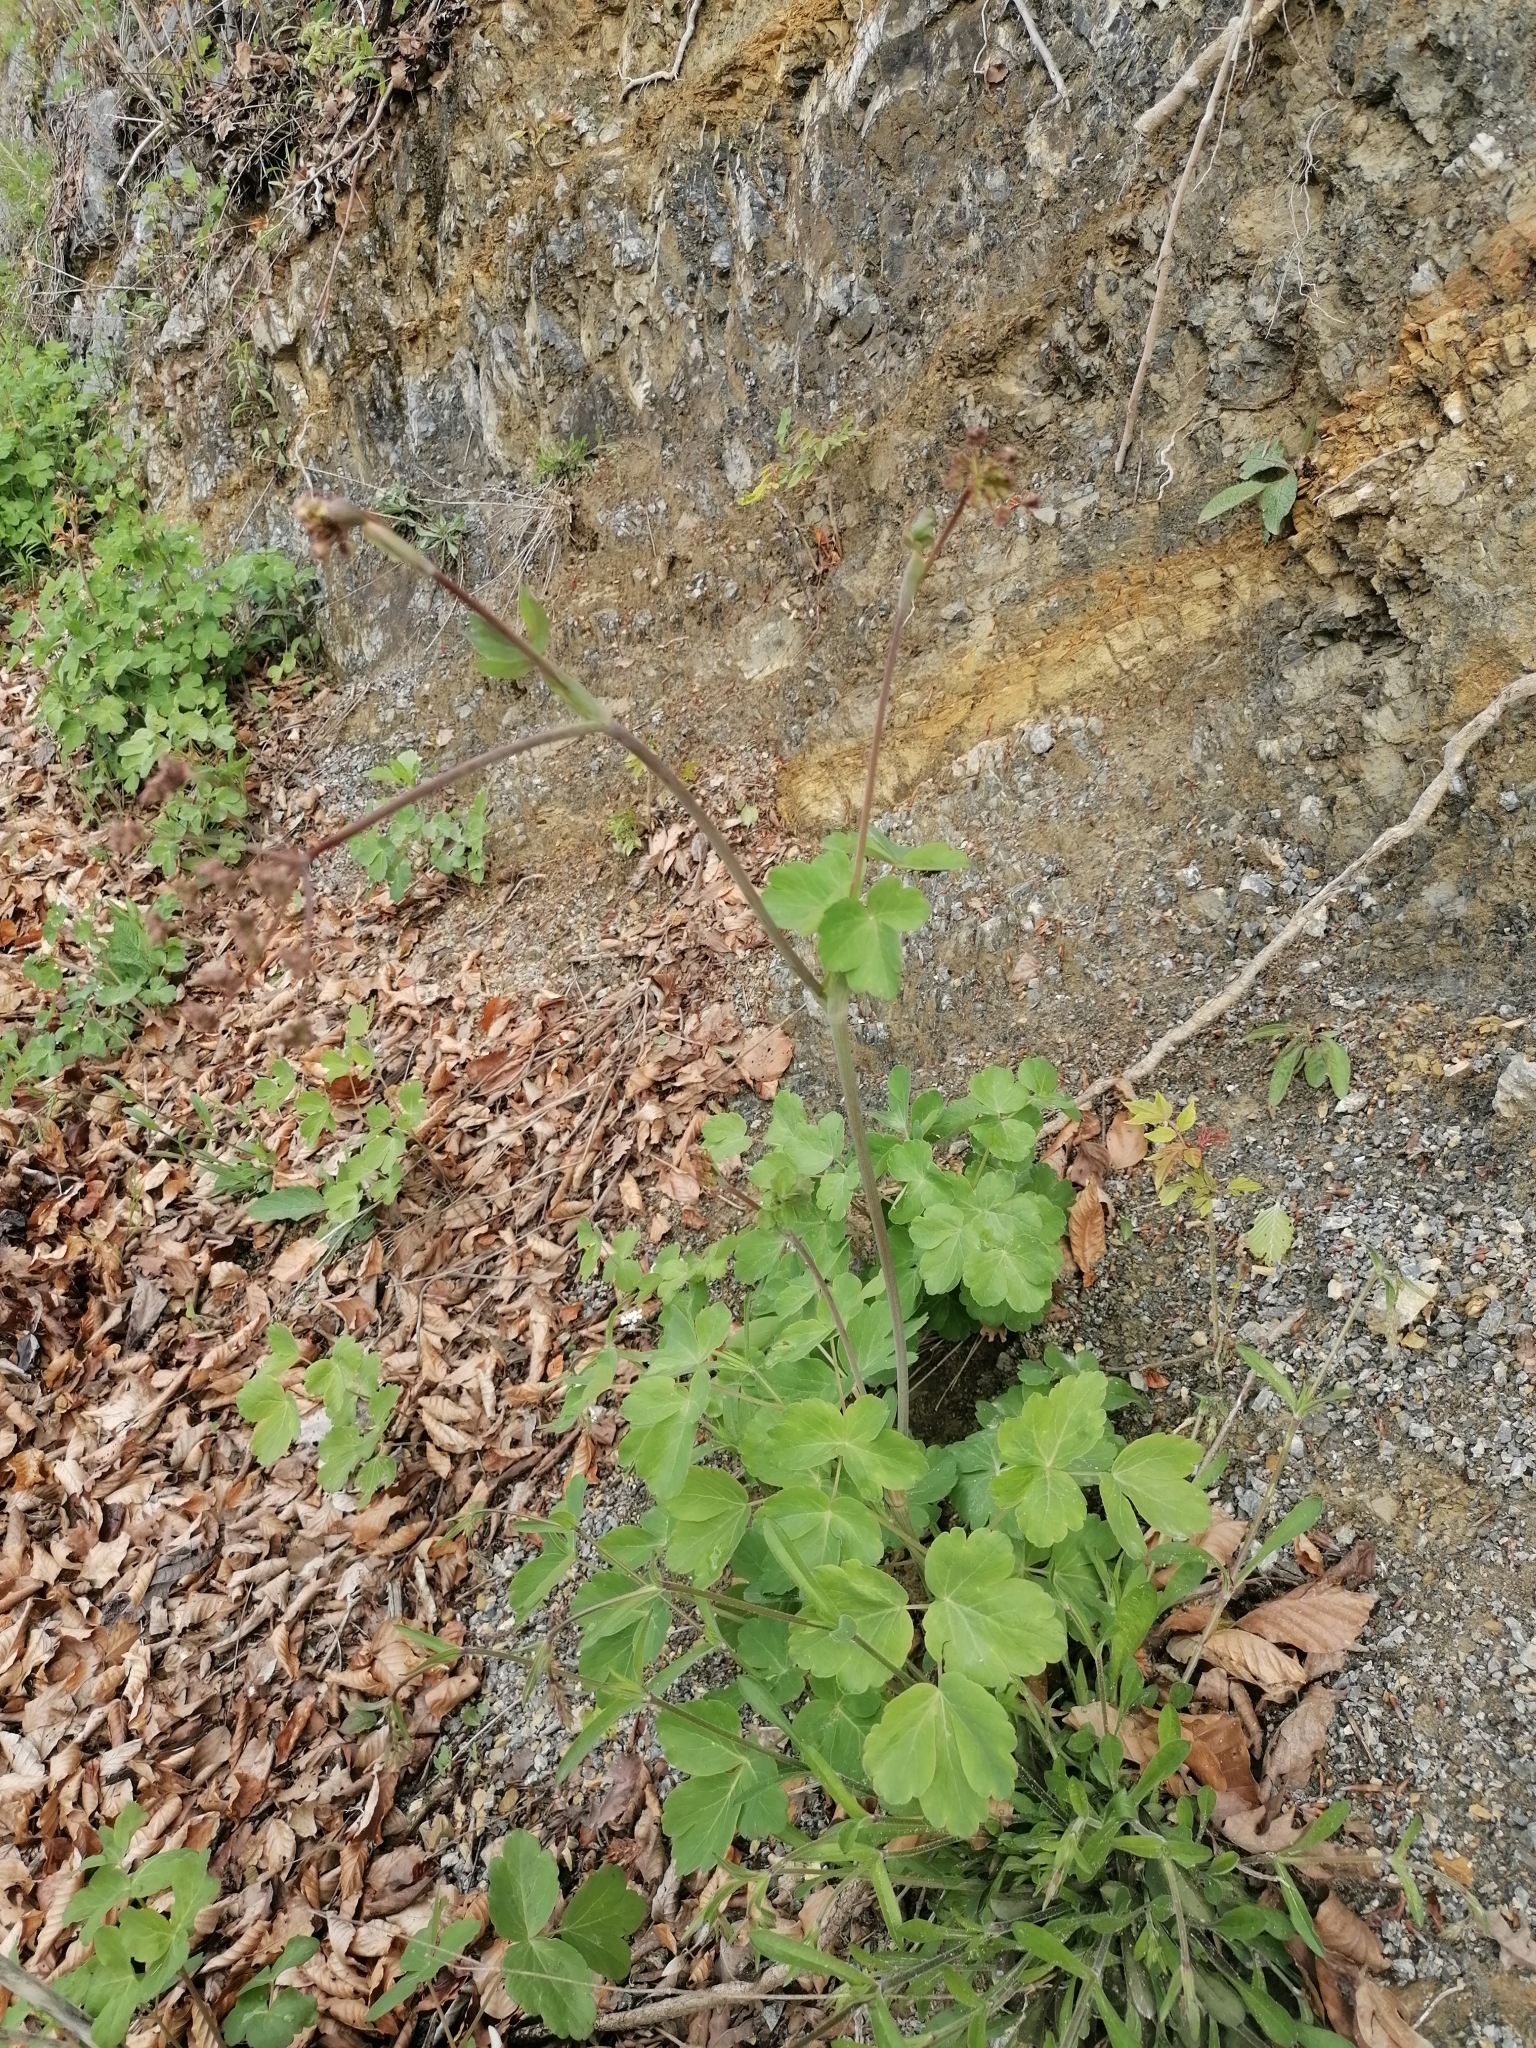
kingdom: Plantae
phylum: Tracheophyta
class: Magnoliopsida
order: Apiales
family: Apiaceae
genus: Laser
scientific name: Laser trilobum
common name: Laser
